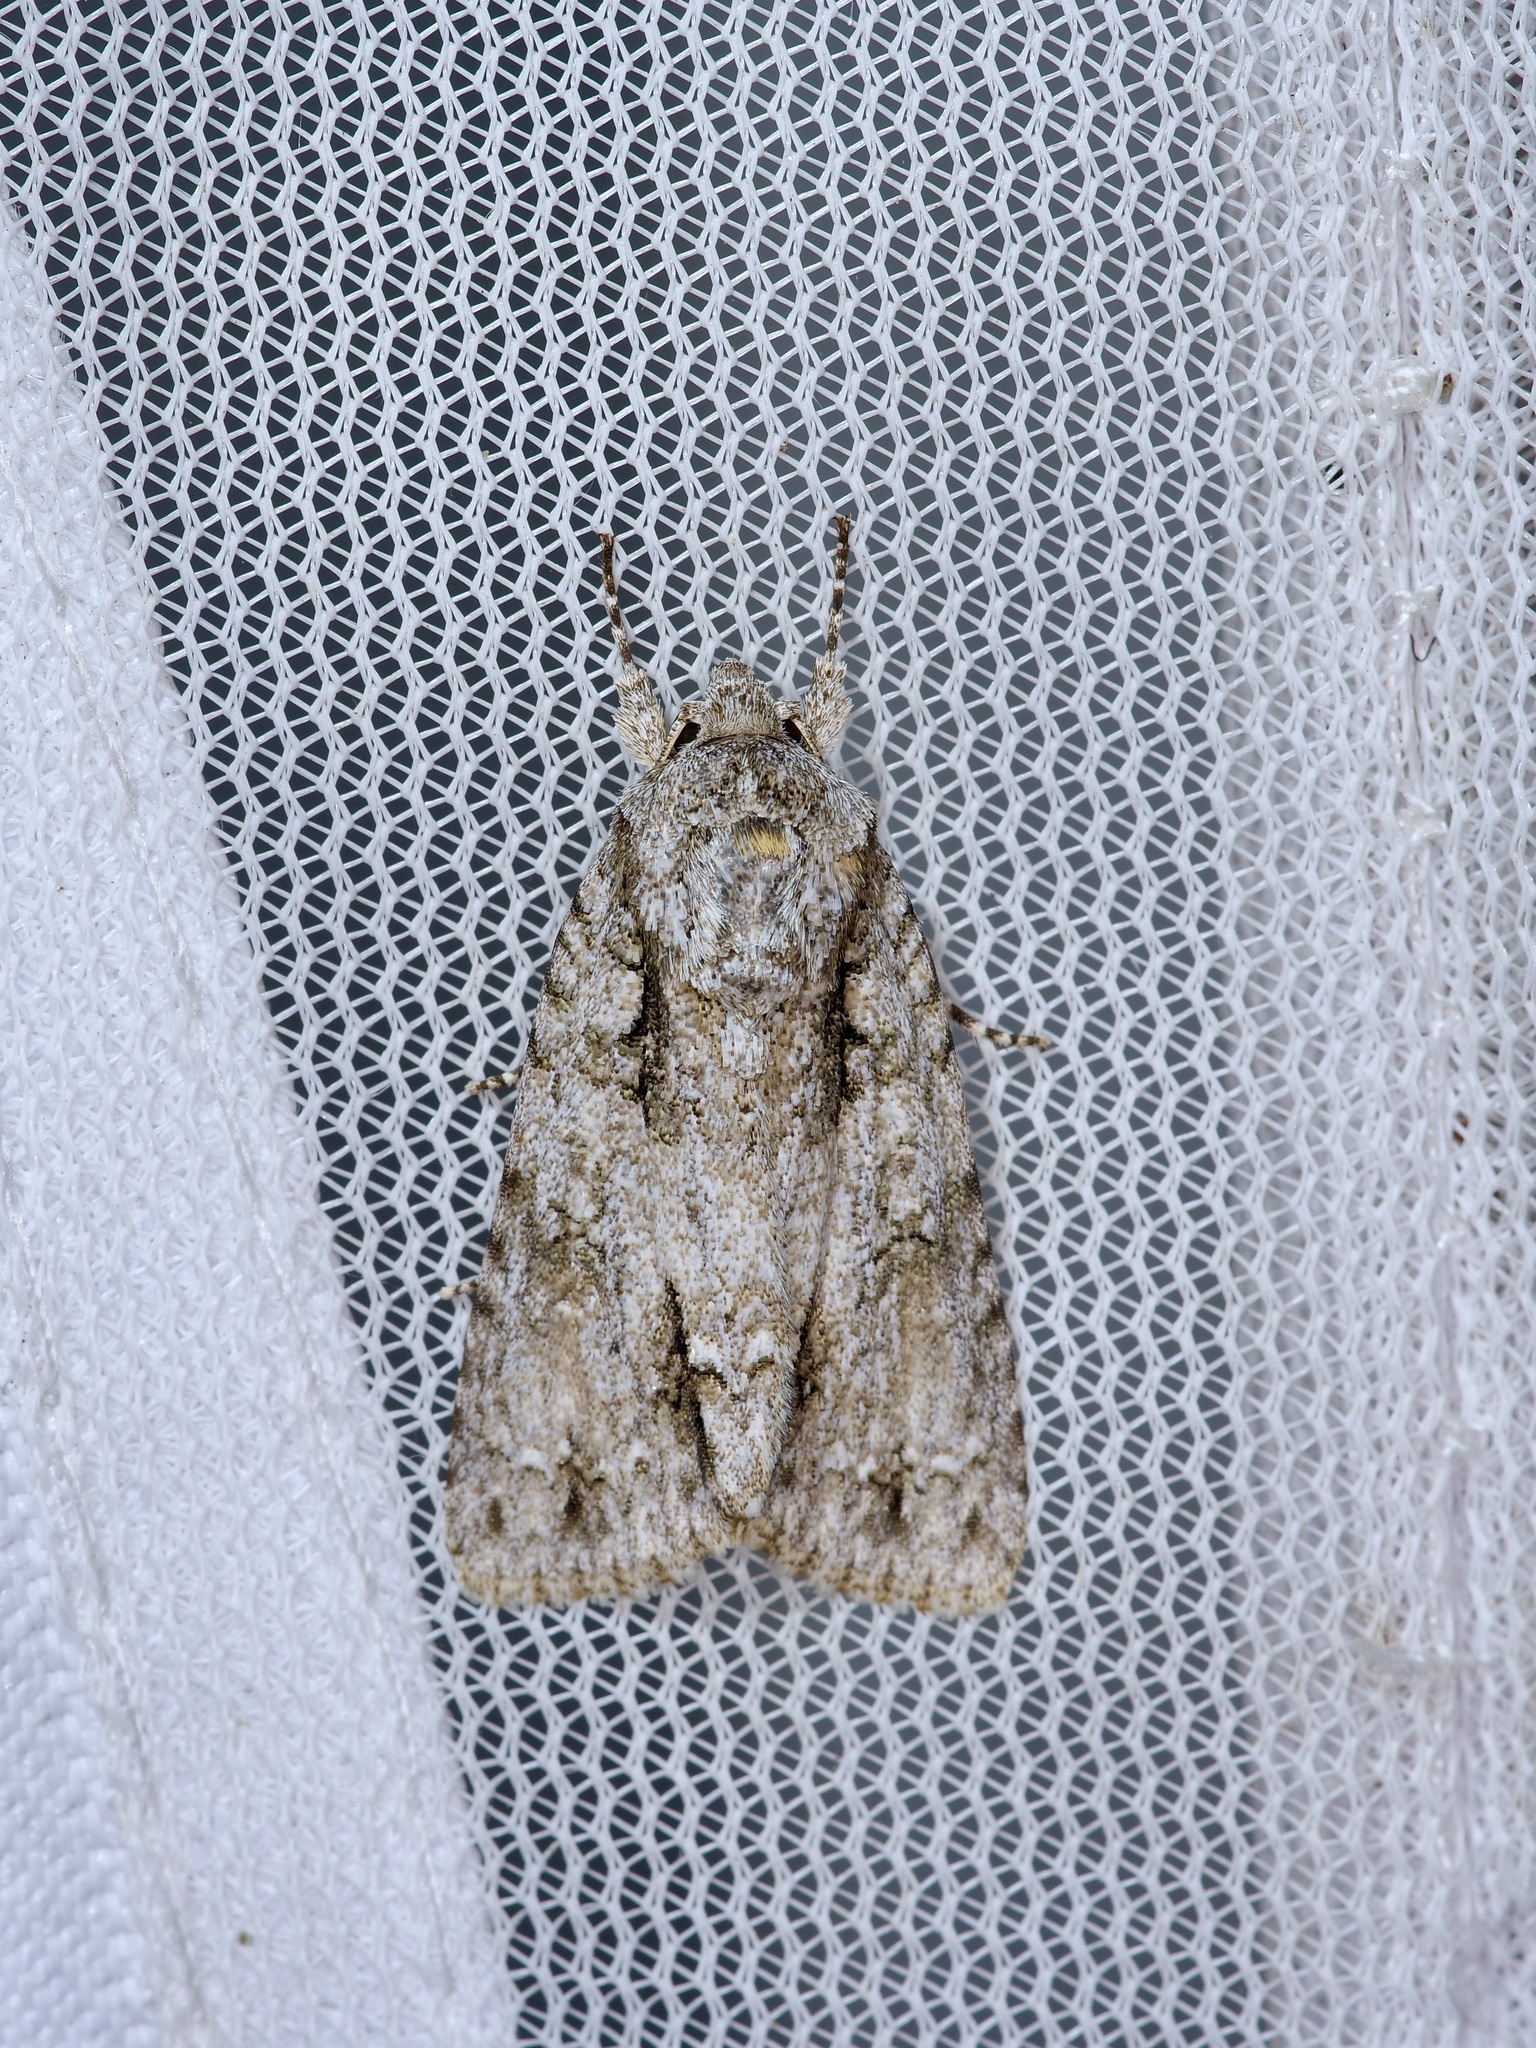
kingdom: Animalia
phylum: Arthropoda
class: Insecta
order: Lepidoptera
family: Noctuidae
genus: Acronicta
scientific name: Acronicta clarescens
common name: Clear dagger
